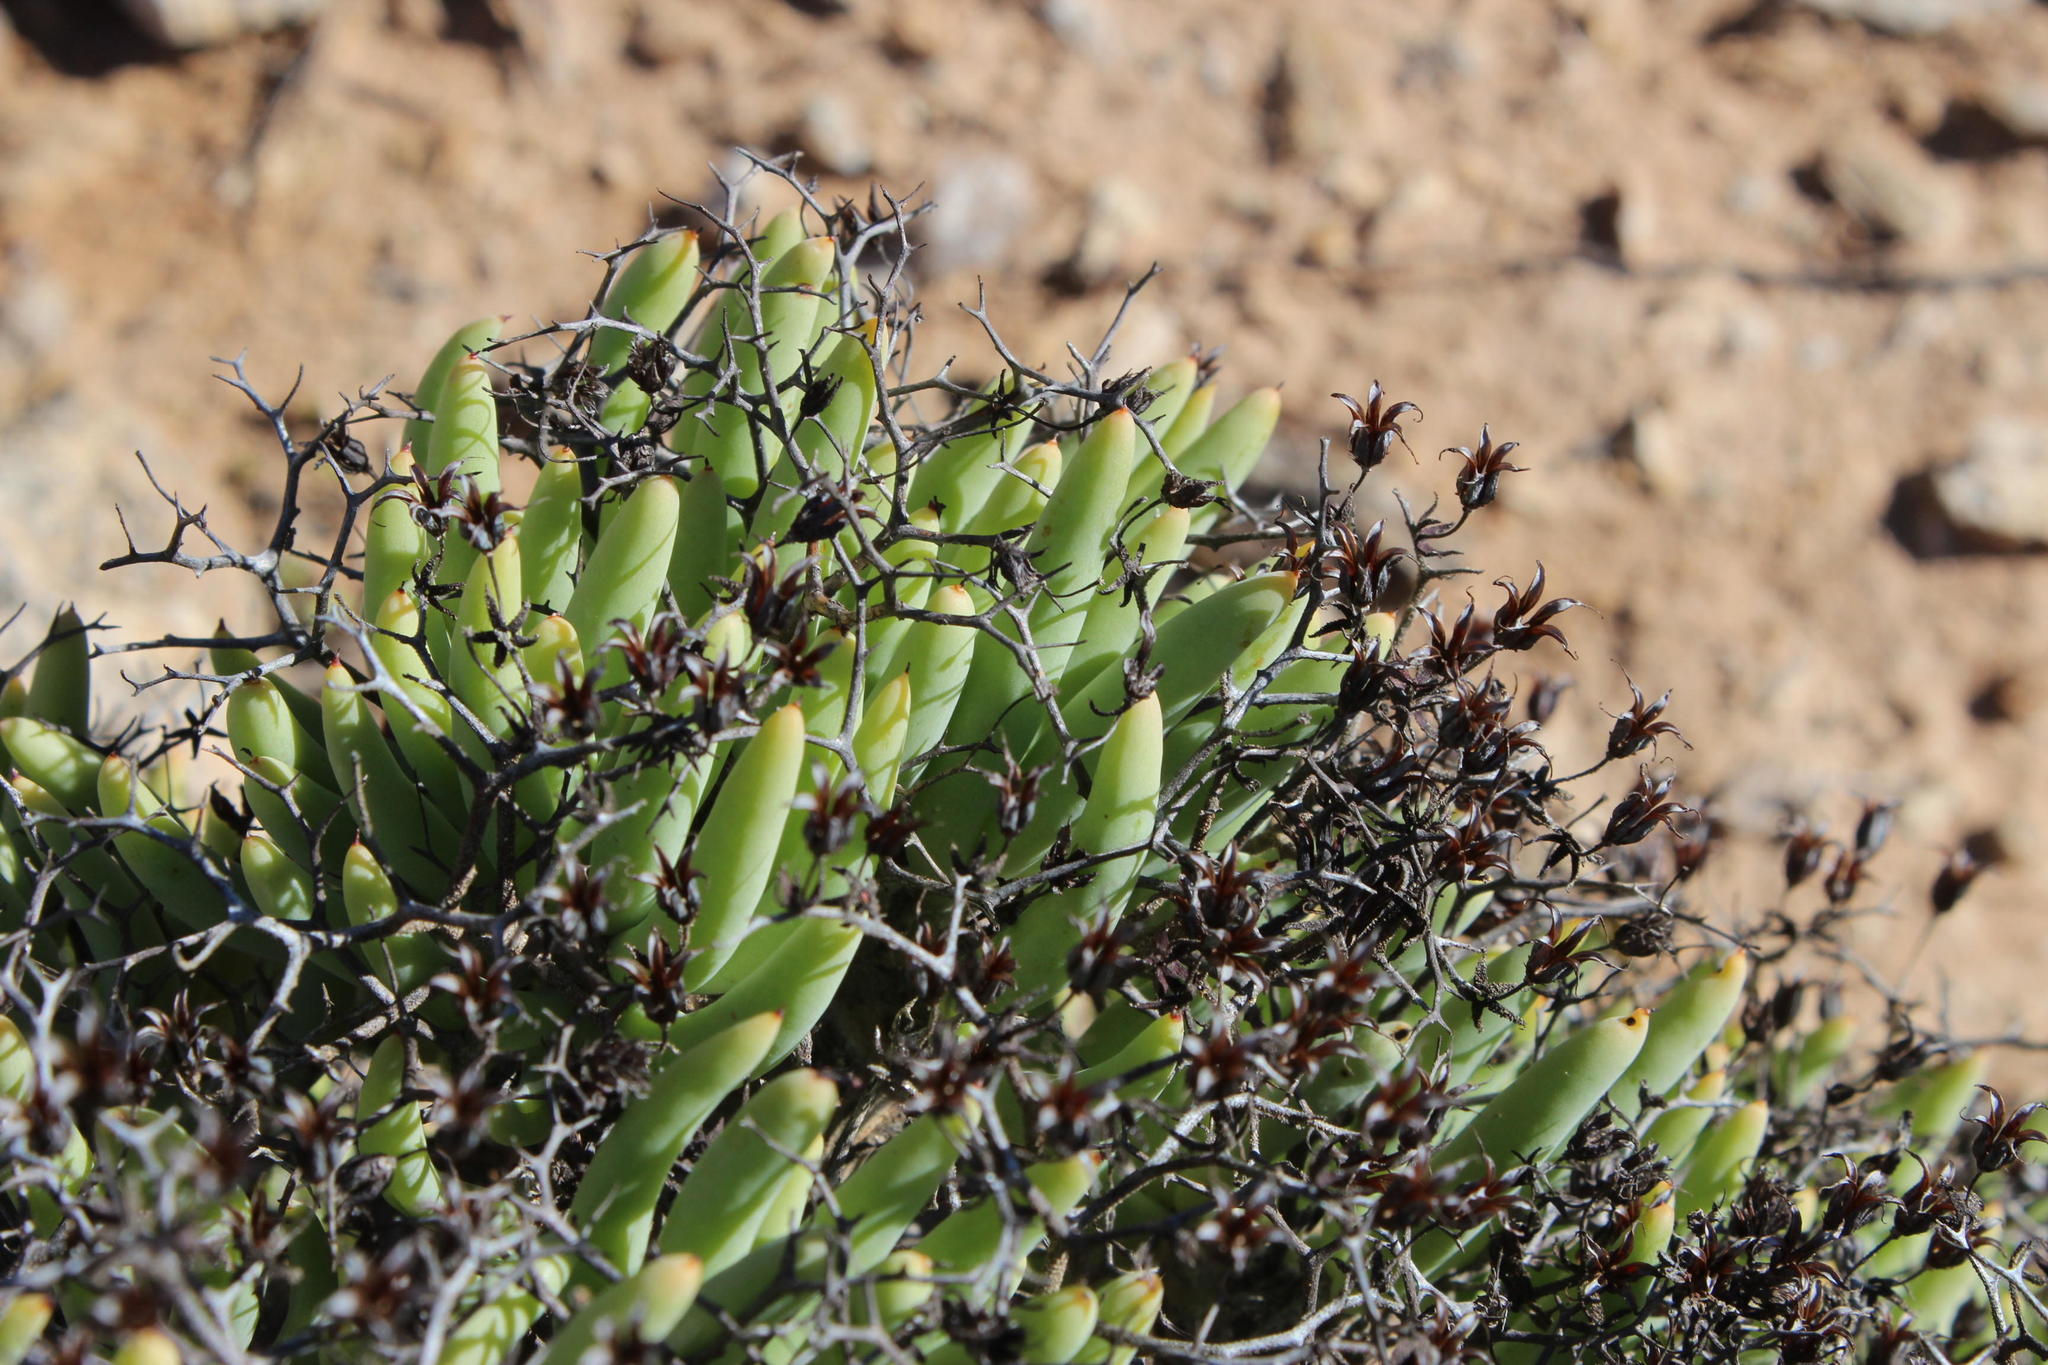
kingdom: Plantae
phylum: Tracheophyta
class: Magnoliopsida
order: Saxifragales
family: Crassulaceae
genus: Tylecodon
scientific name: Tylecodon reticulatus
